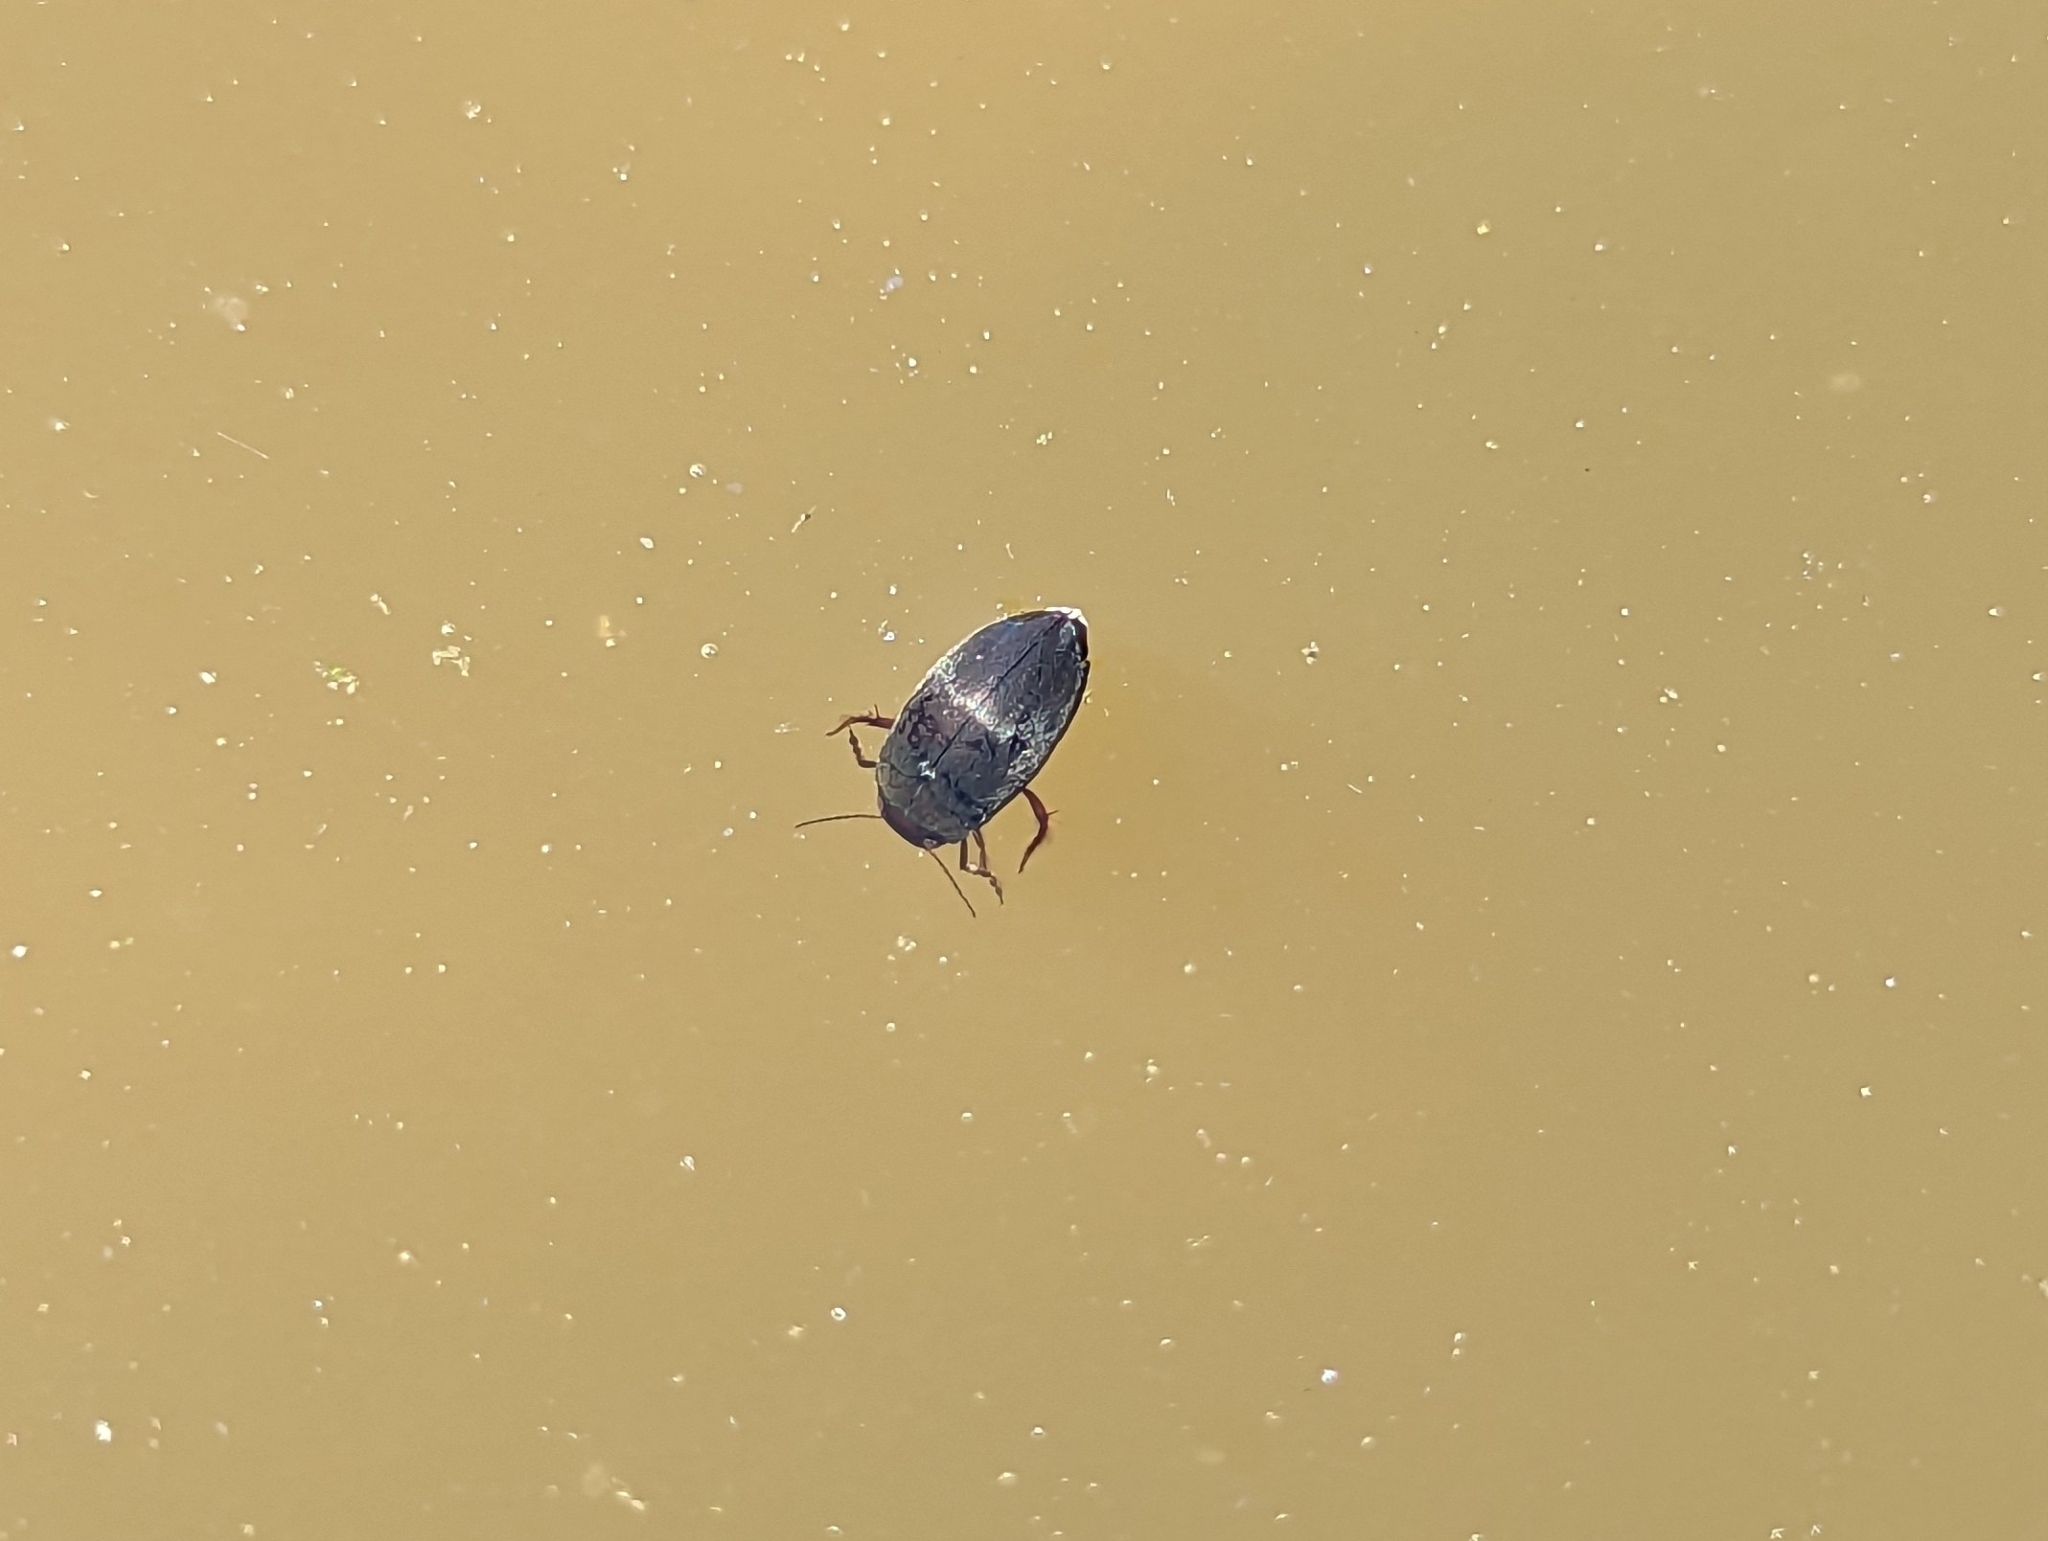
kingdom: Animalia
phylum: Arthropoda
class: Insecta
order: Coleoptera
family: Dytiscidae
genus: Hydroporus
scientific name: Hydroporus
